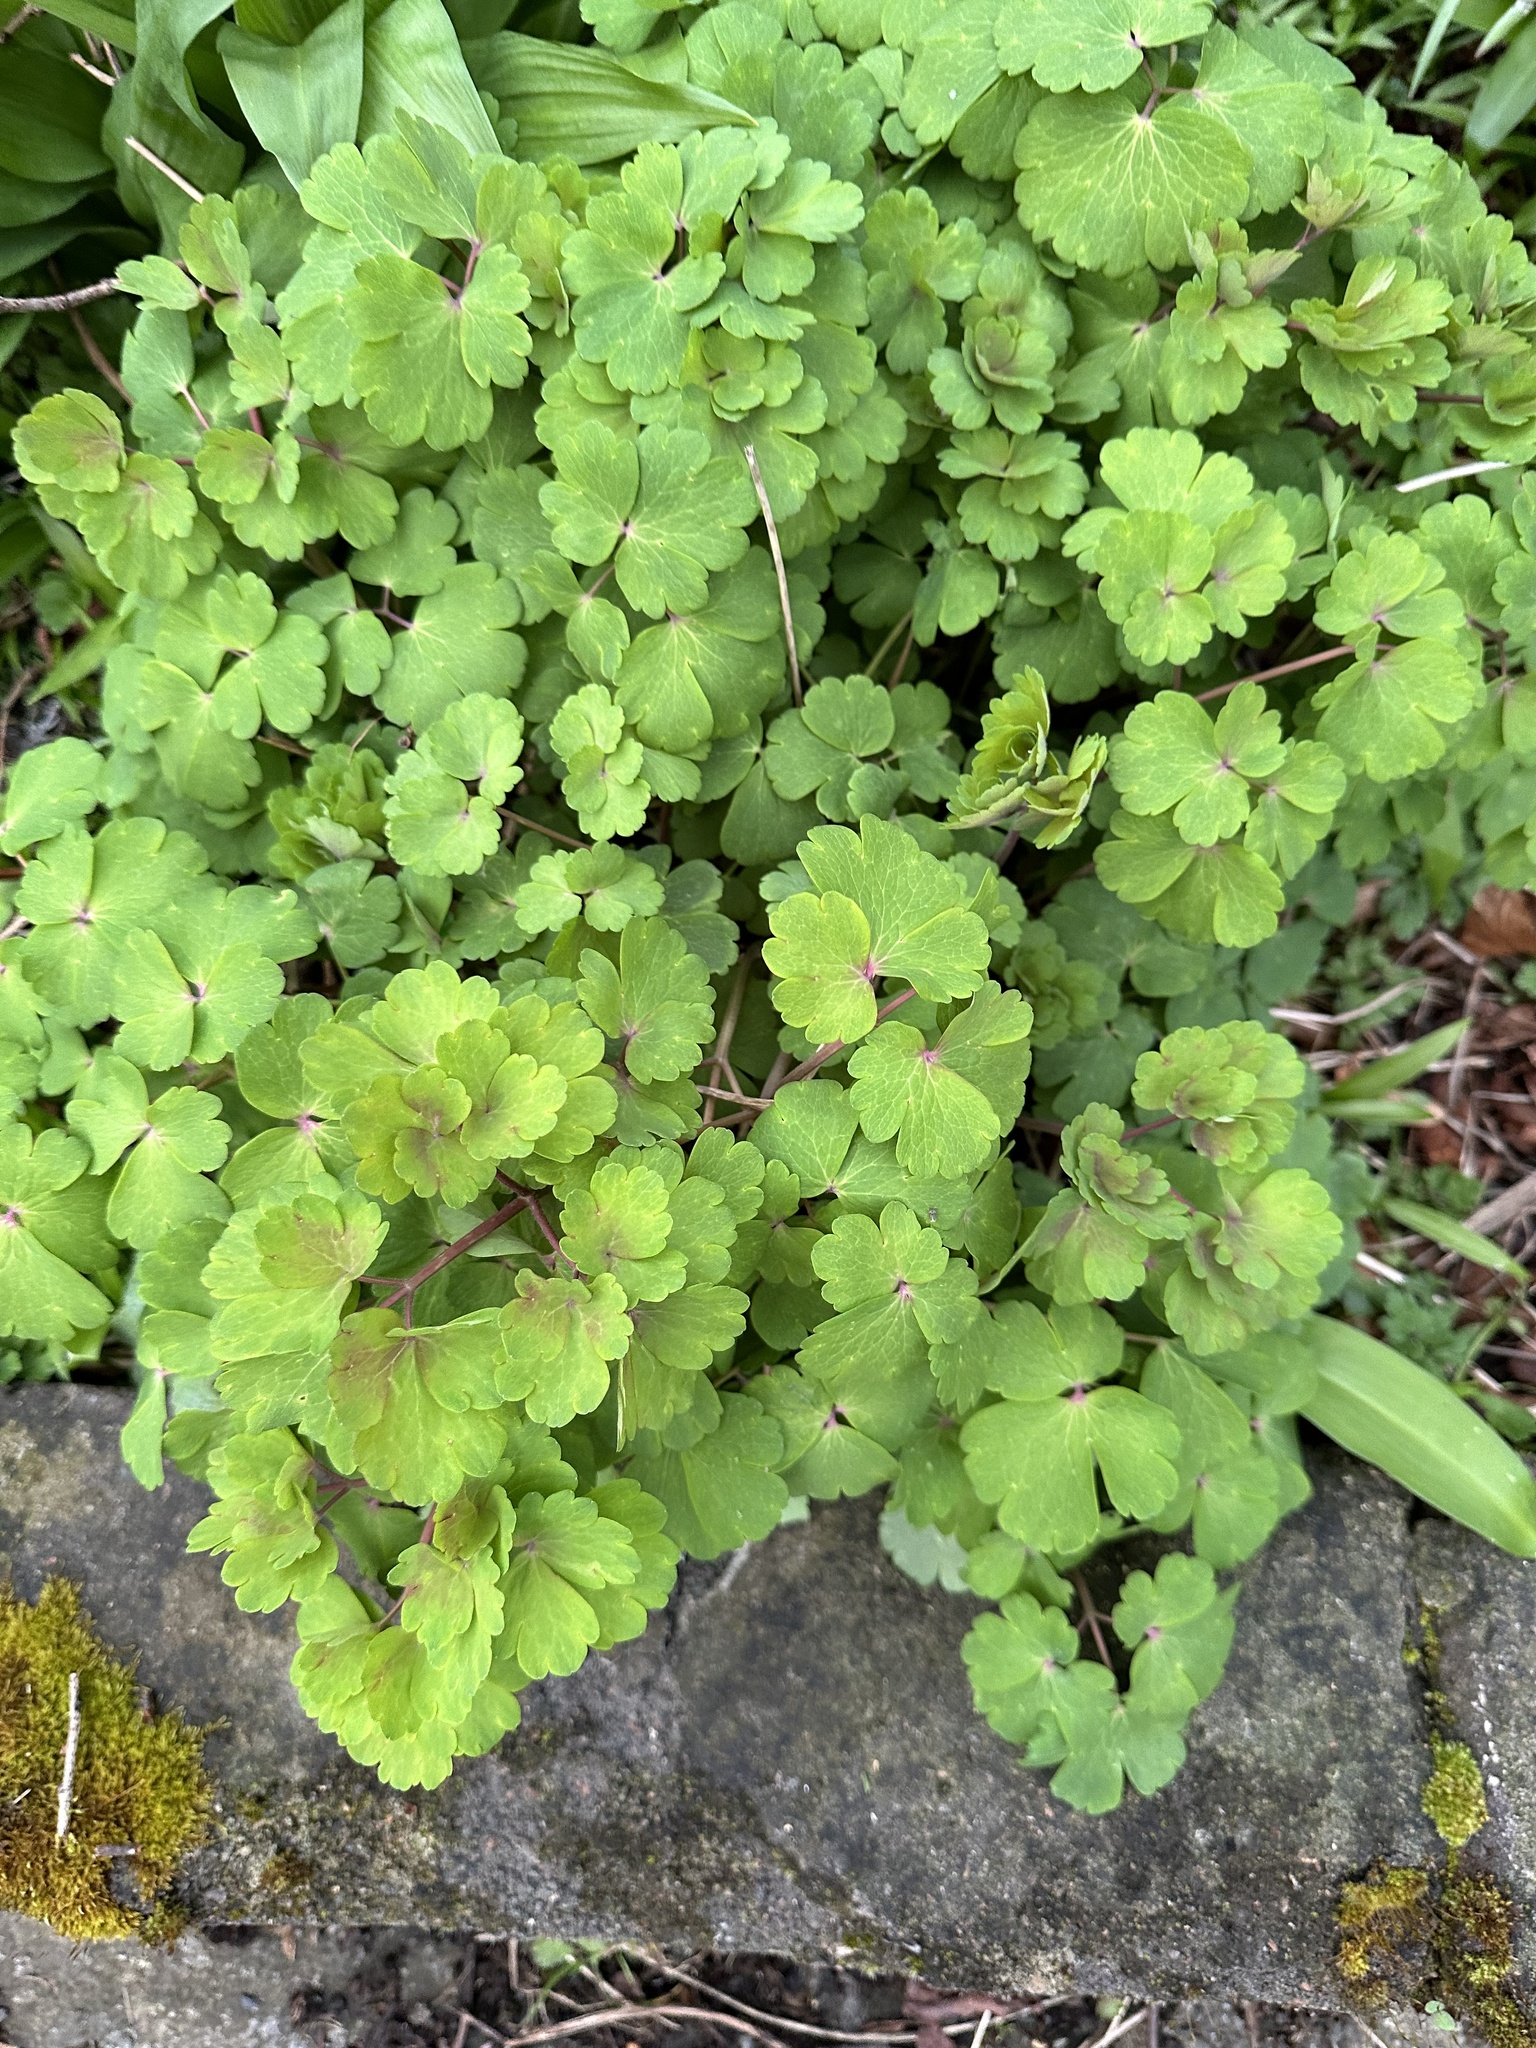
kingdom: Plantae
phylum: Tracheophyta
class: Magnoliopsida
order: Ranunculales
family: Ranunculaceae
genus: Aquilegia
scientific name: Aquilegia vulgaris
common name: Columbine
